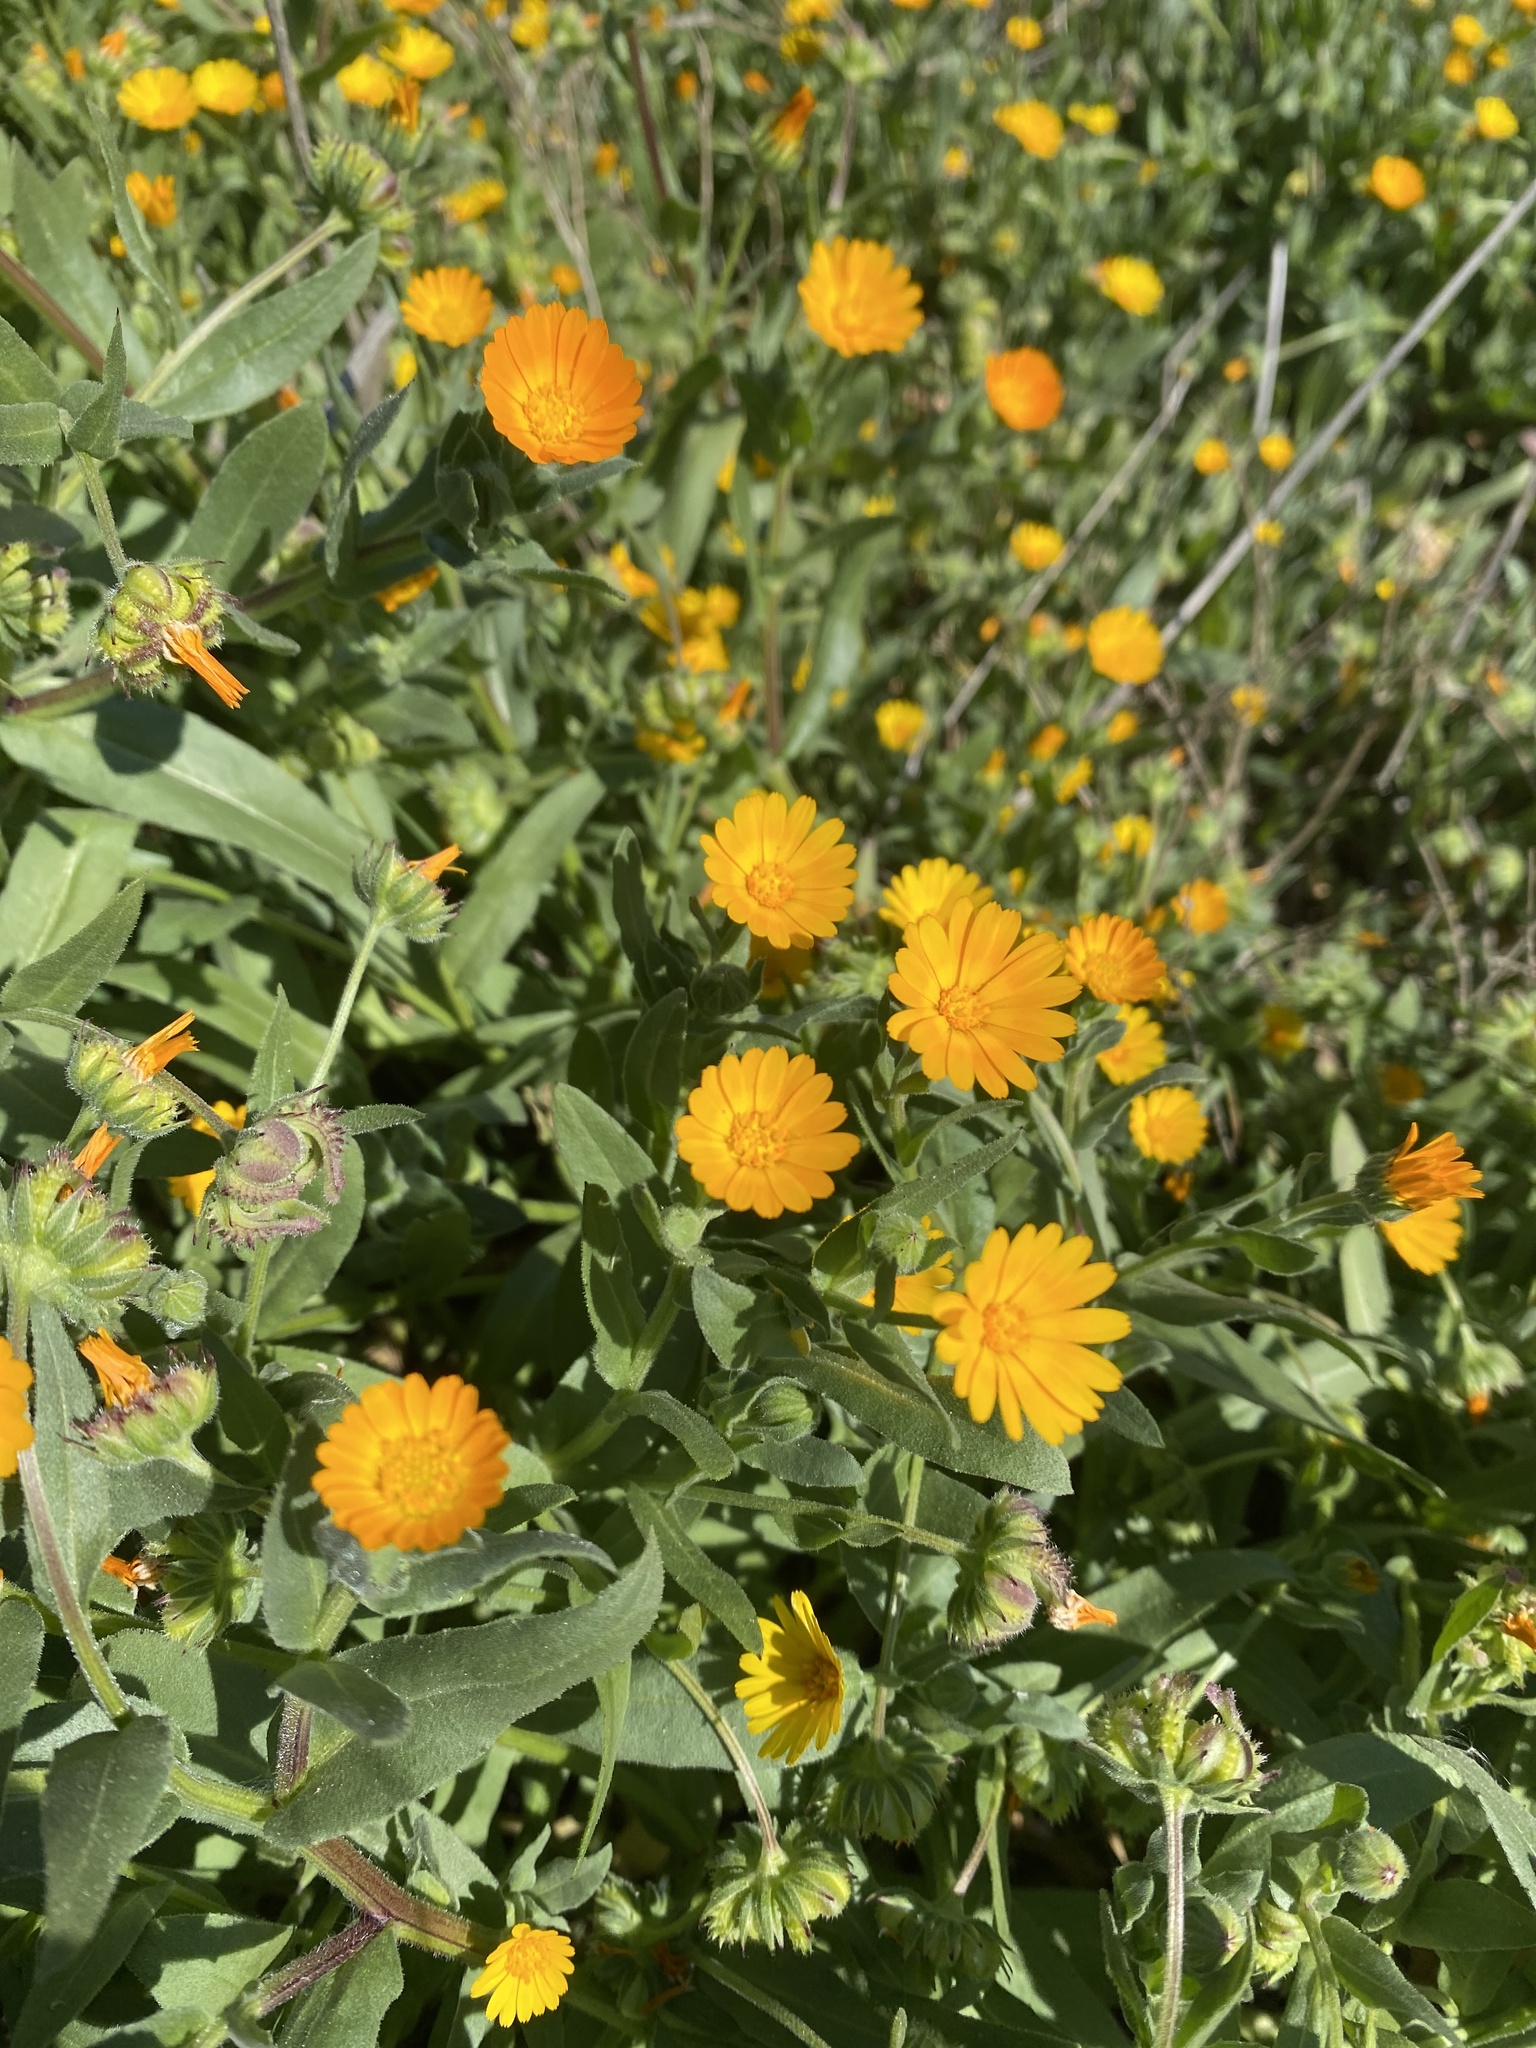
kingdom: Plantae
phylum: Tracheophyta
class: Magnoliopsida
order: Asterales
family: Asteraceae
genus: Calendula
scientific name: Calendula arvensis
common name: Field marigold
